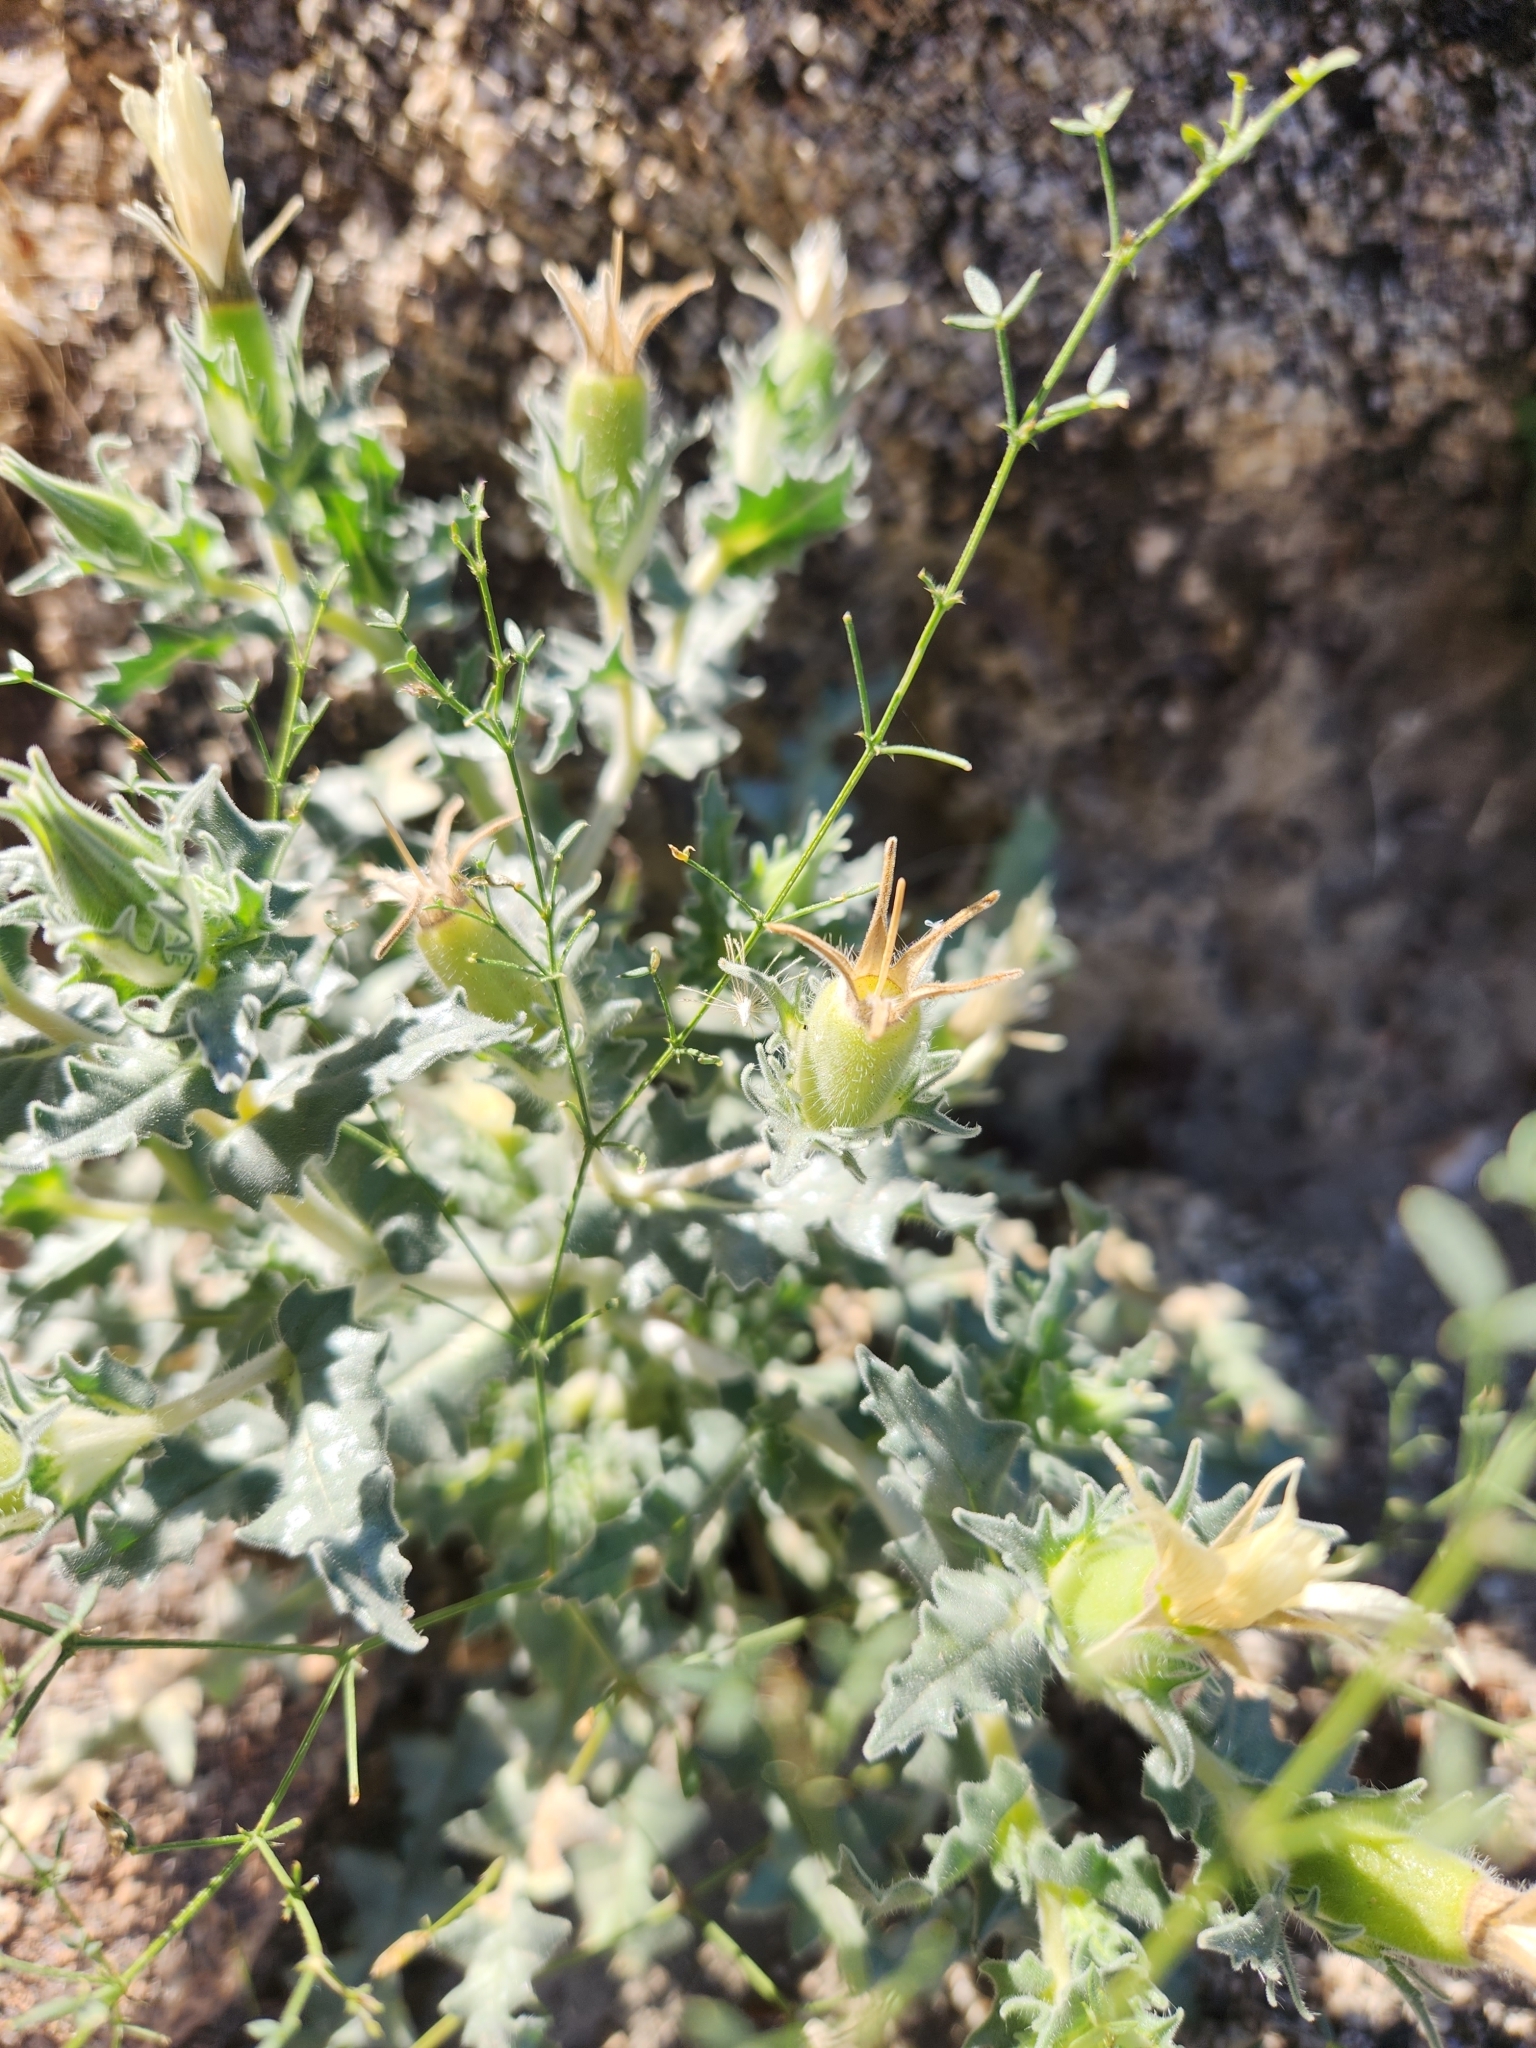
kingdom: Plantae
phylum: Tracheophyta
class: Magnoliopsida
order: Cornales
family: Loasaceae
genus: Mentzelia
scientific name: Mentzelia involucrata
